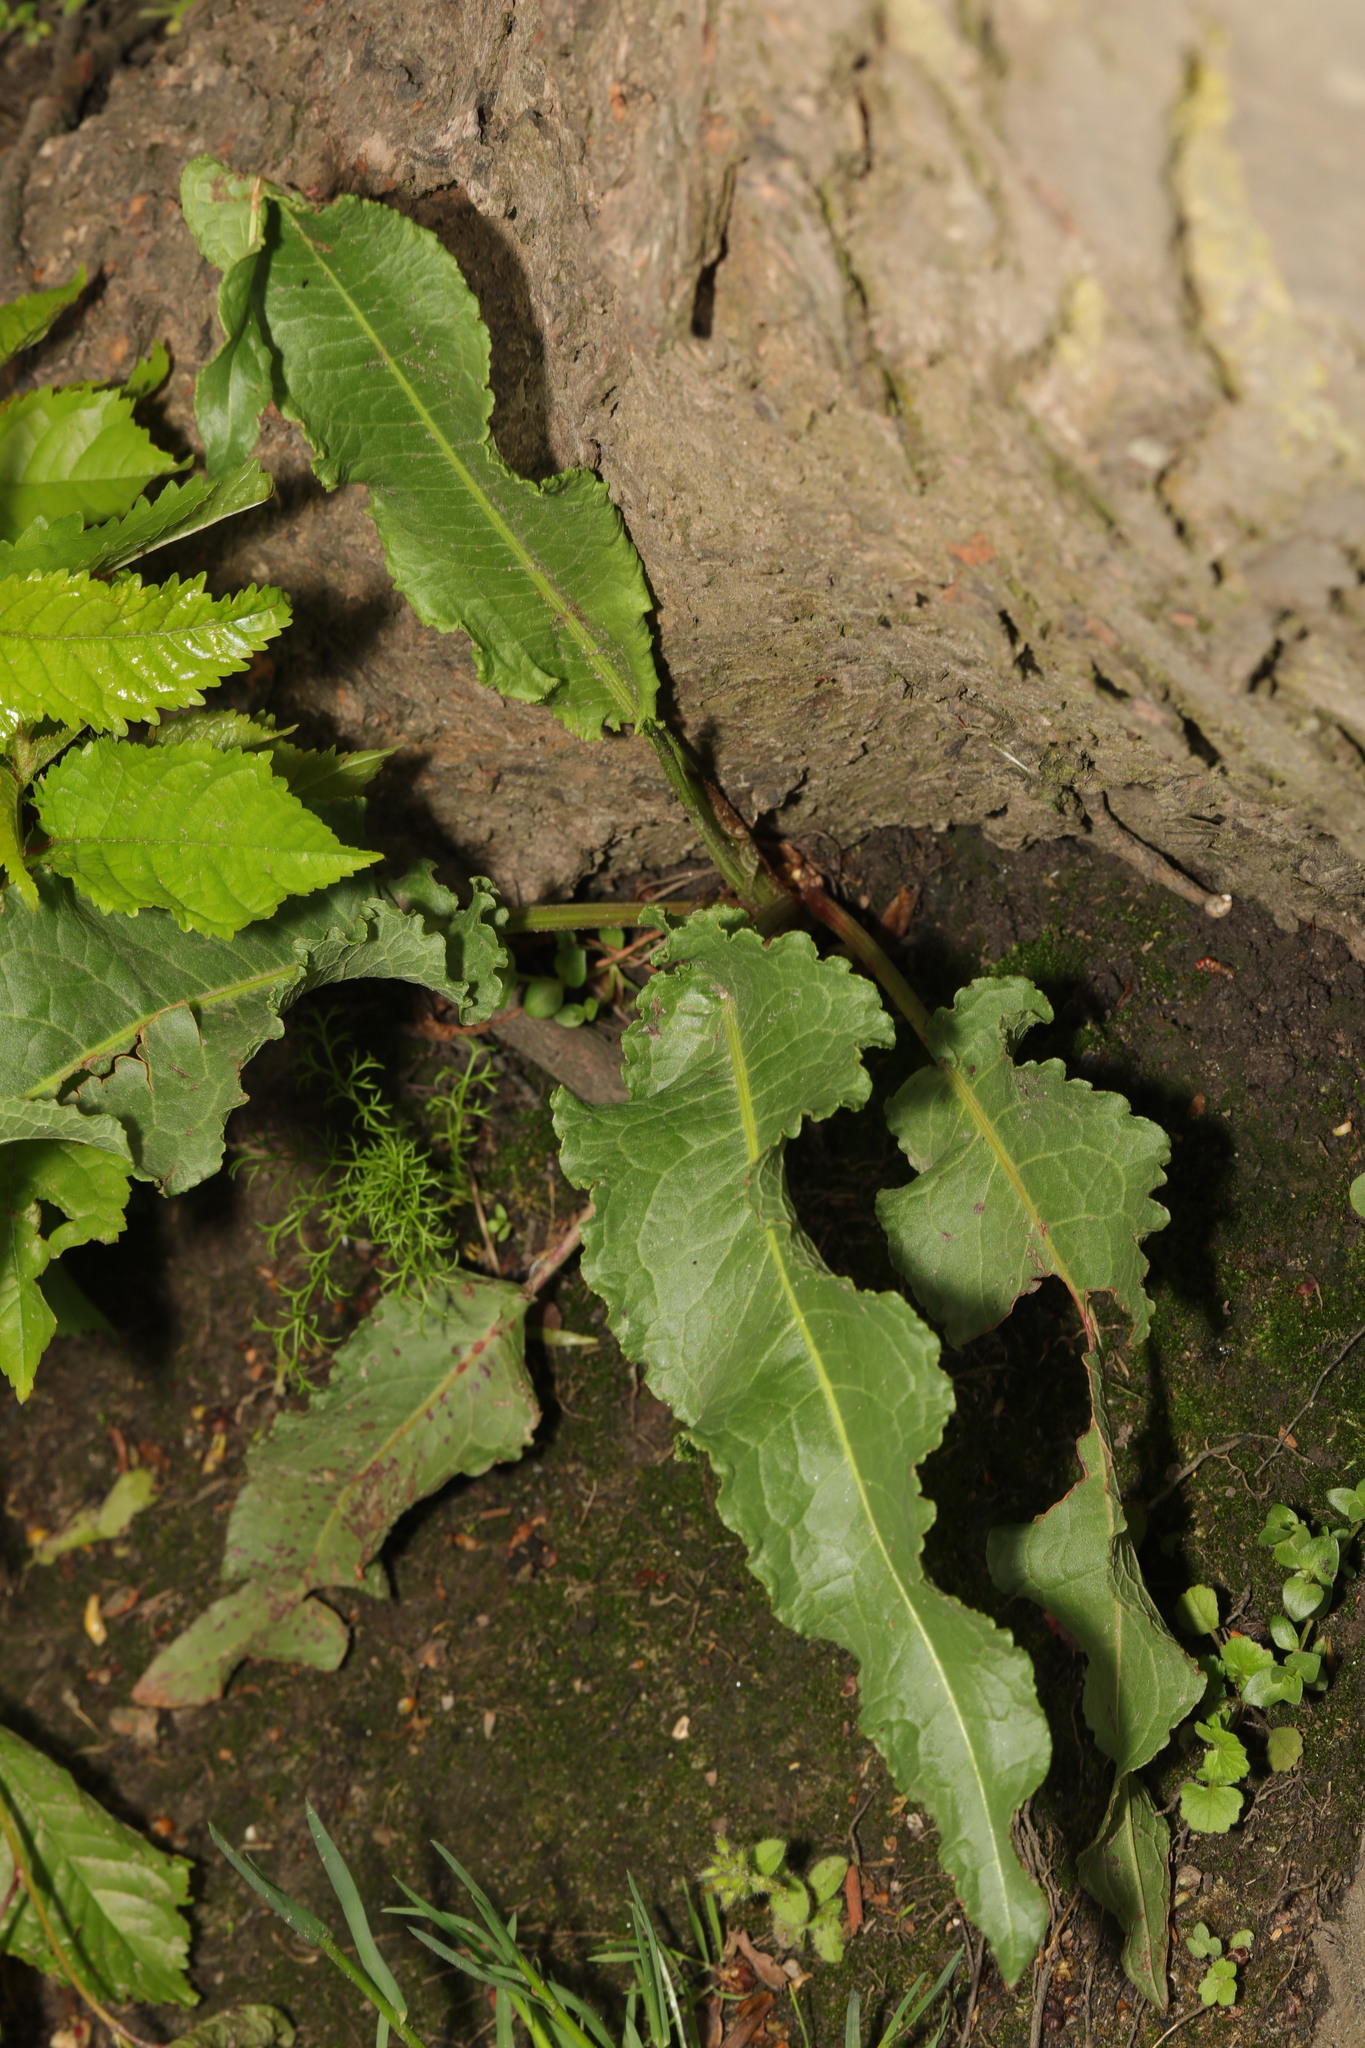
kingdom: Plantae
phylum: Tracheophyta
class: Magnoliopsida
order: Caryophyllales
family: Polygonaceae
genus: Rumex
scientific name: Rumex crispus
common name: Curled dock
